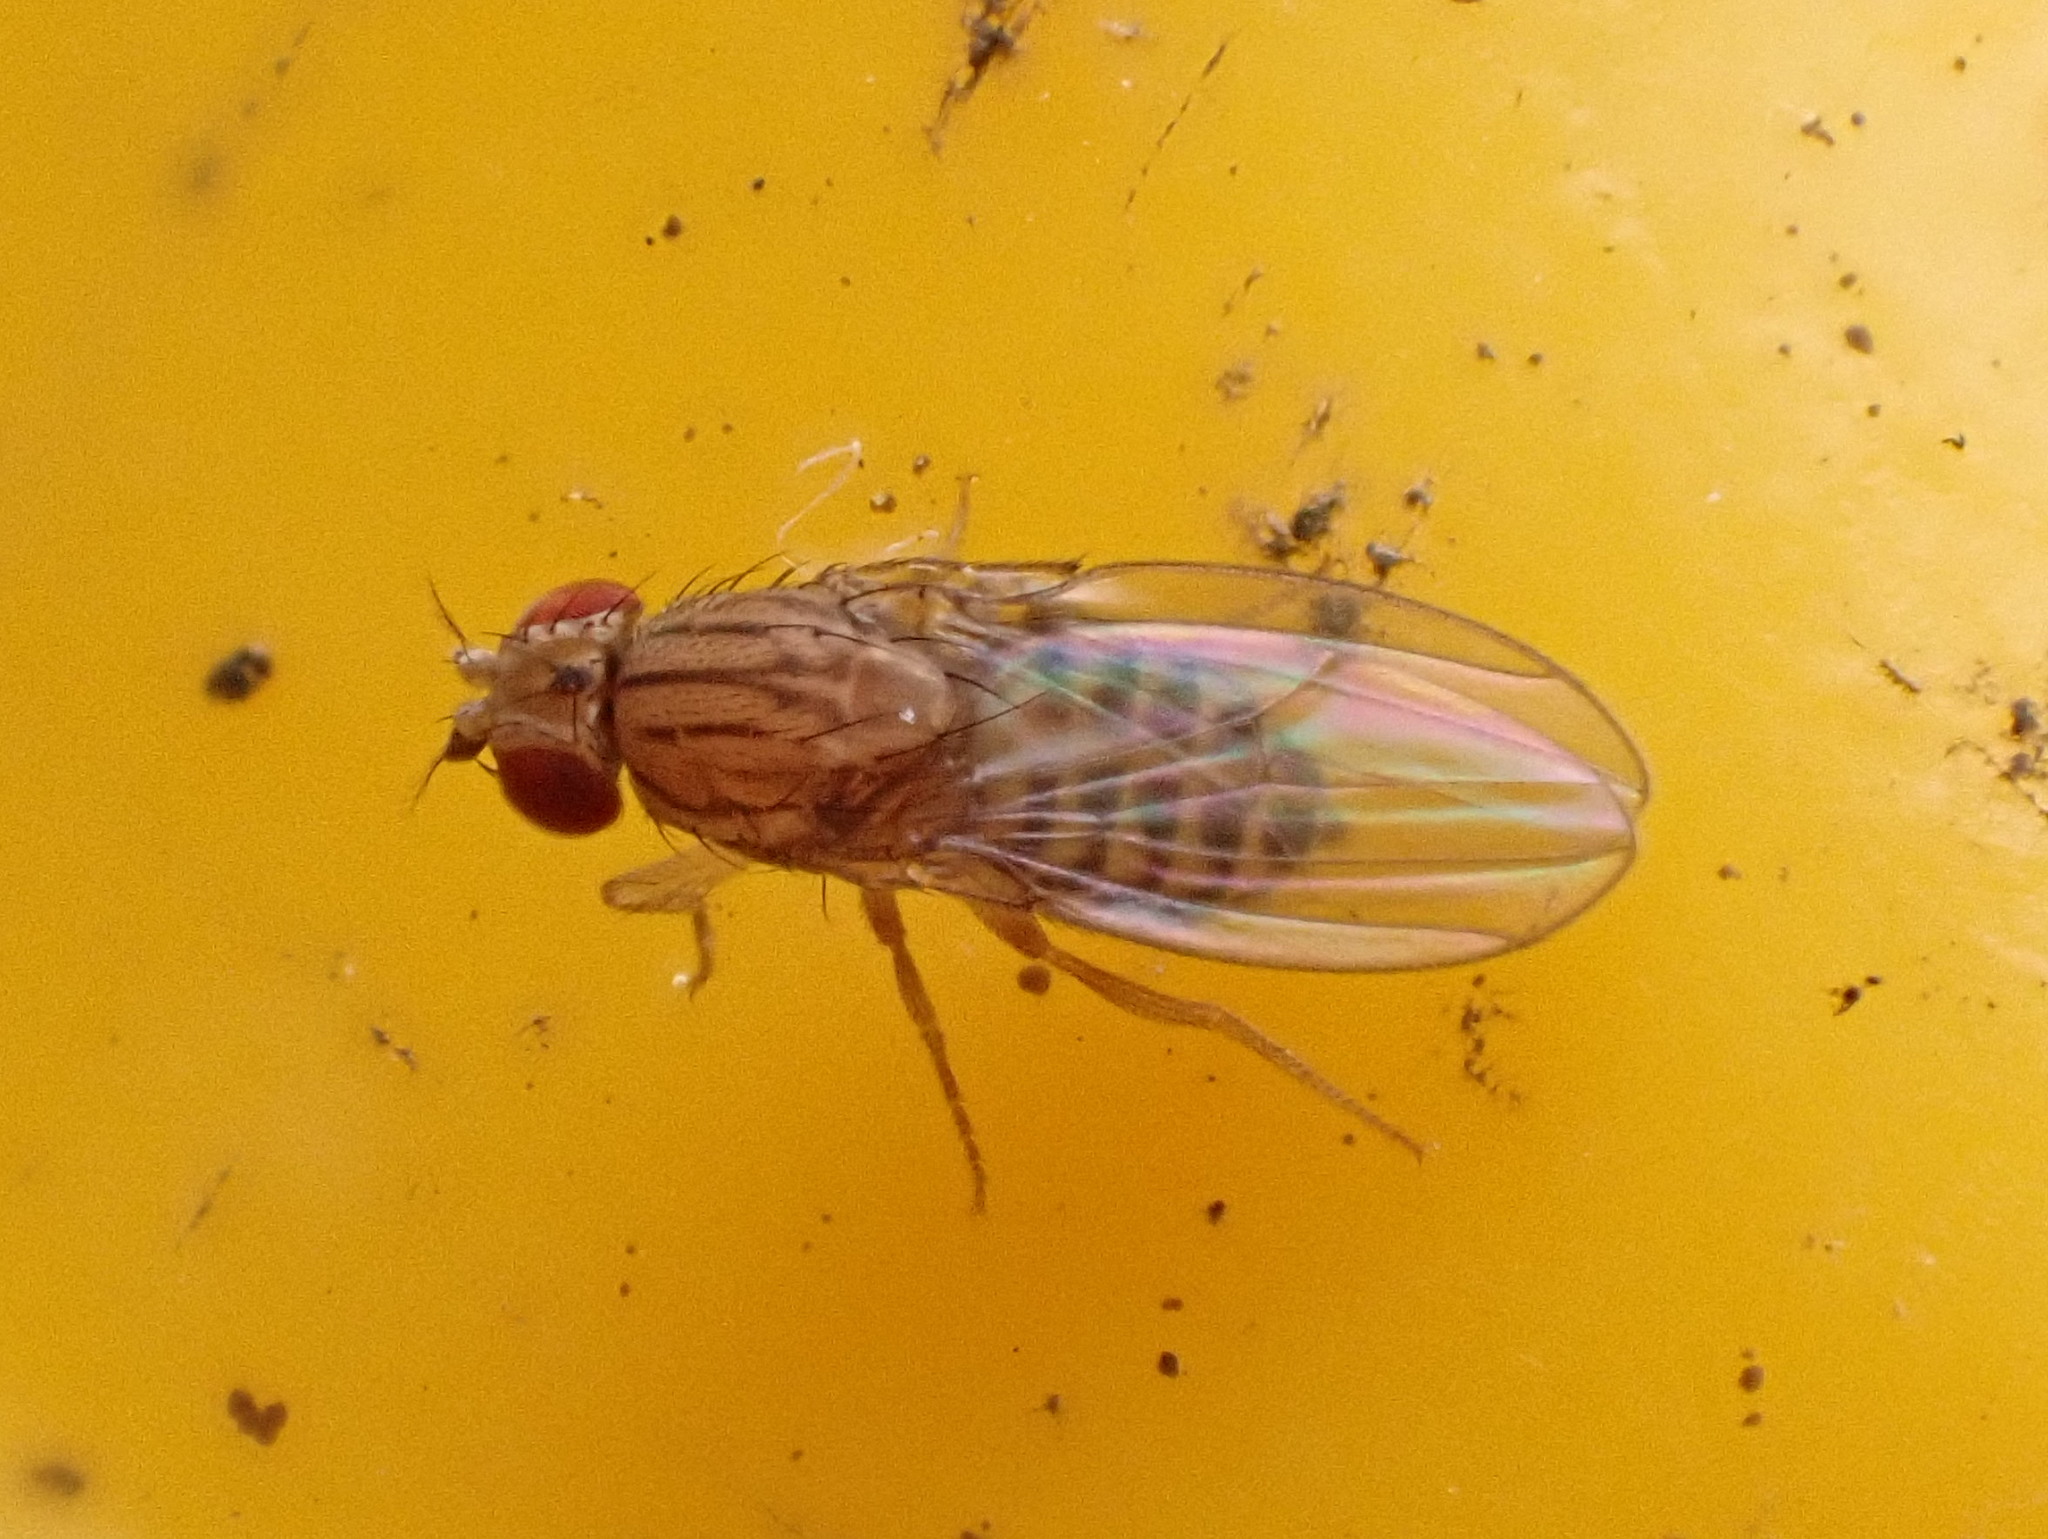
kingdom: Animalia
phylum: Arthropoda
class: Insecta
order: Diptera
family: Drosophilidae
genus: Drosophila
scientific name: Drosophila busckii
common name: Pomace fly
